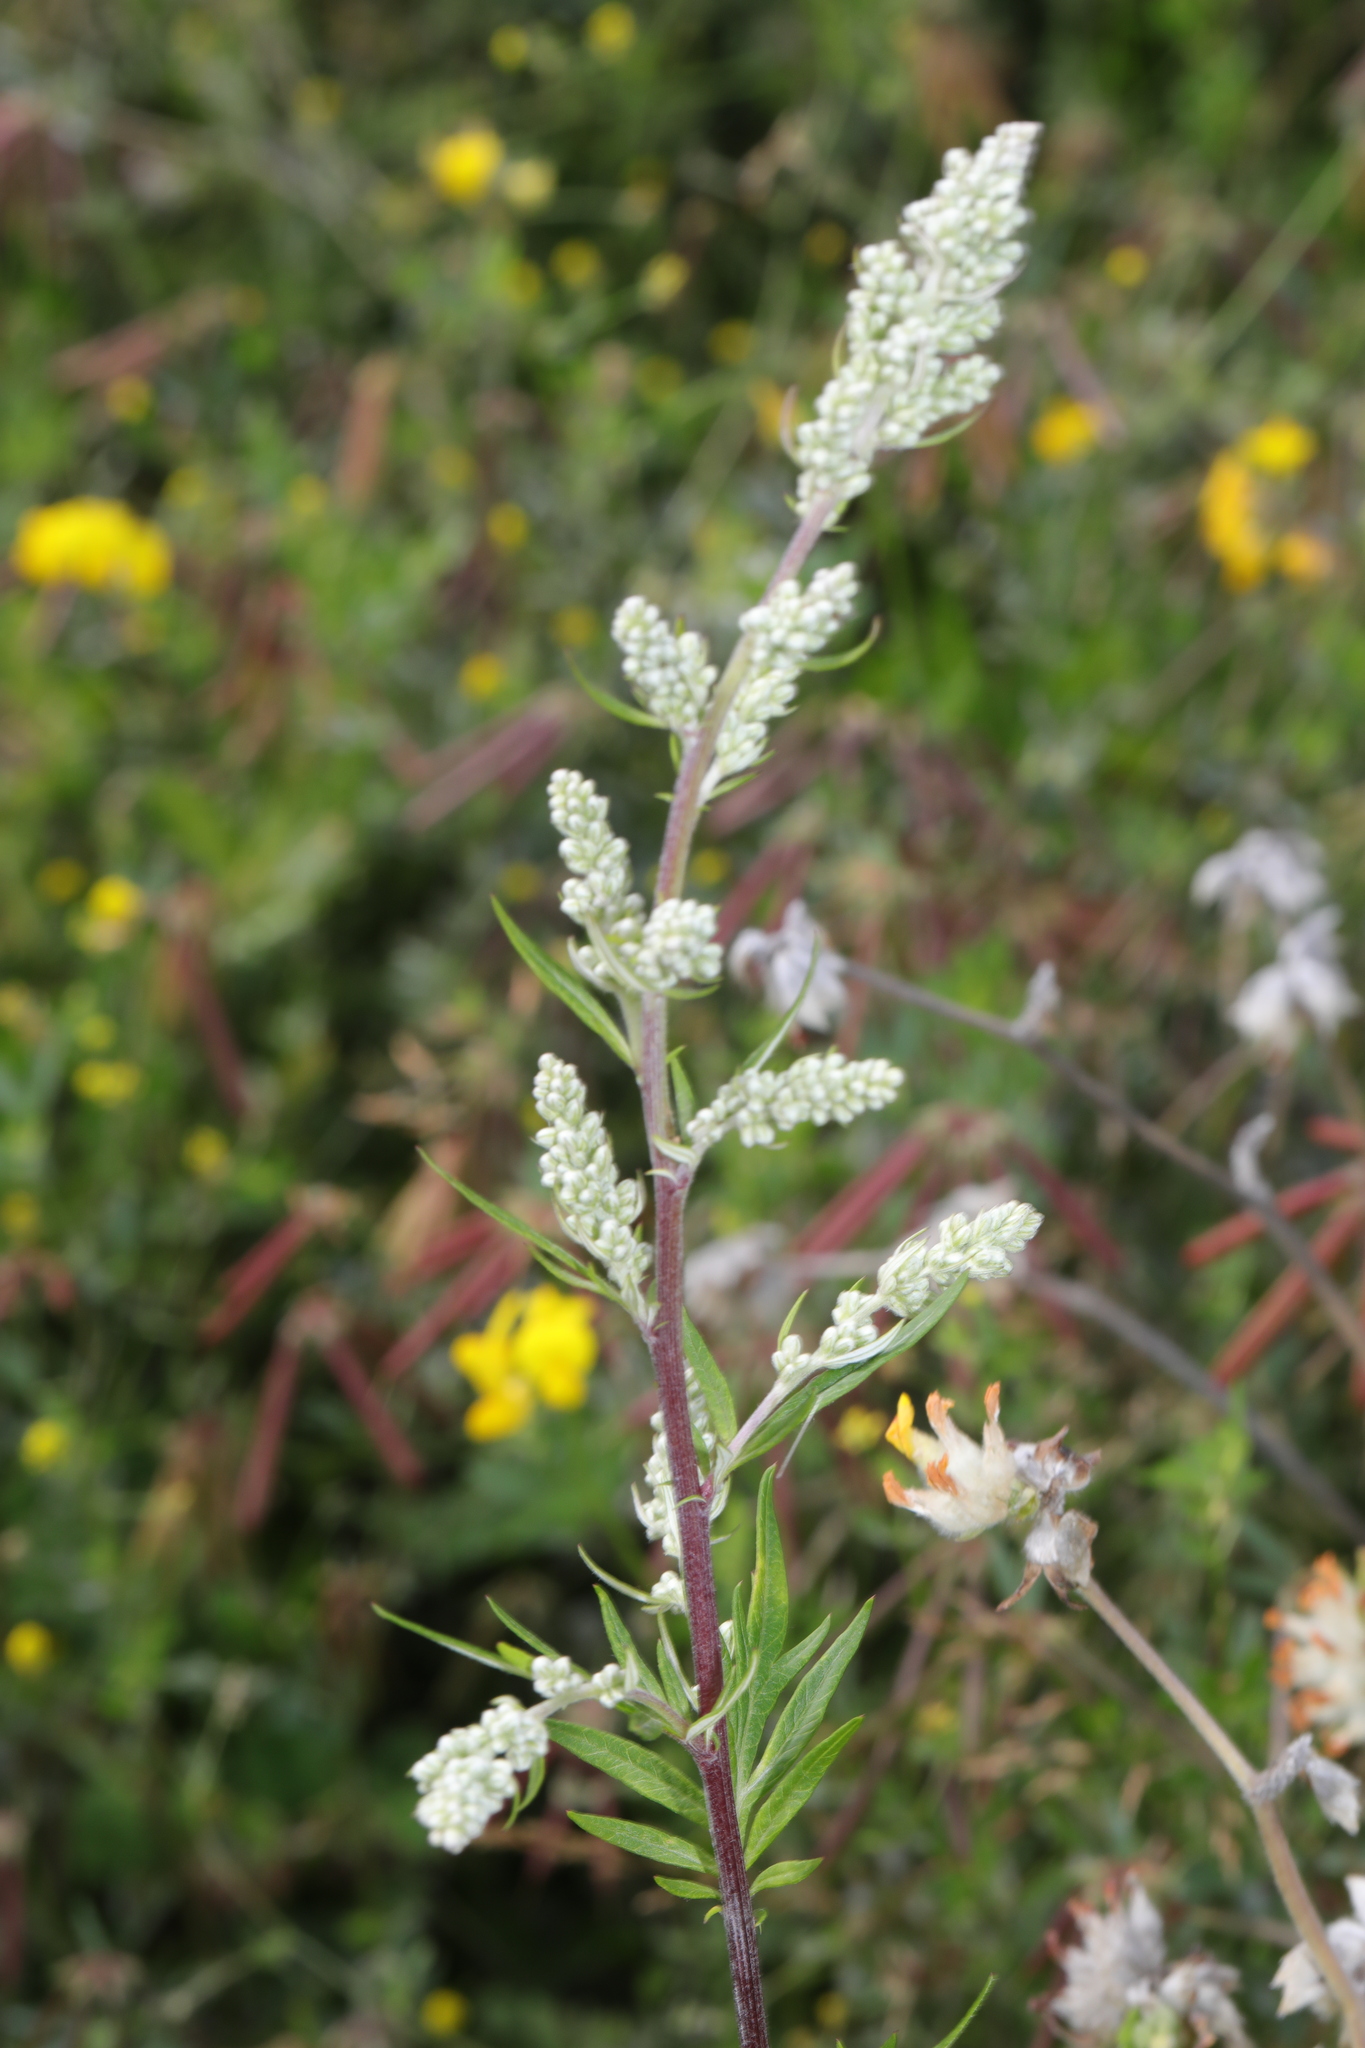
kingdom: Plantae
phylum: Tracheophyta
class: Magnoliopsida
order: Asterales
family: Asteraceae
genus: Artemisia
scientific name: Artemisia vulgaris
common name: Mugwort
